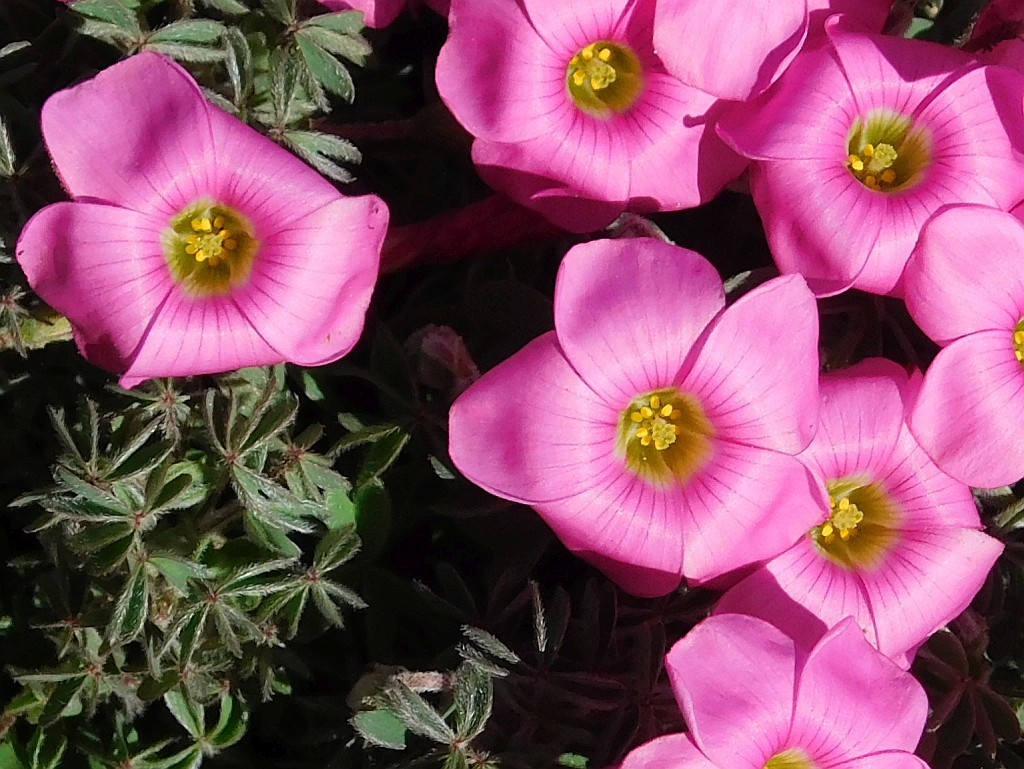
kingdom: Plantae
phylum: Tracheophyta
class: Magnoliopsida
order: Oxalidales
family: Oxalidaceae
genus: Oxalis
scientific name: Oxalis heterophylla
